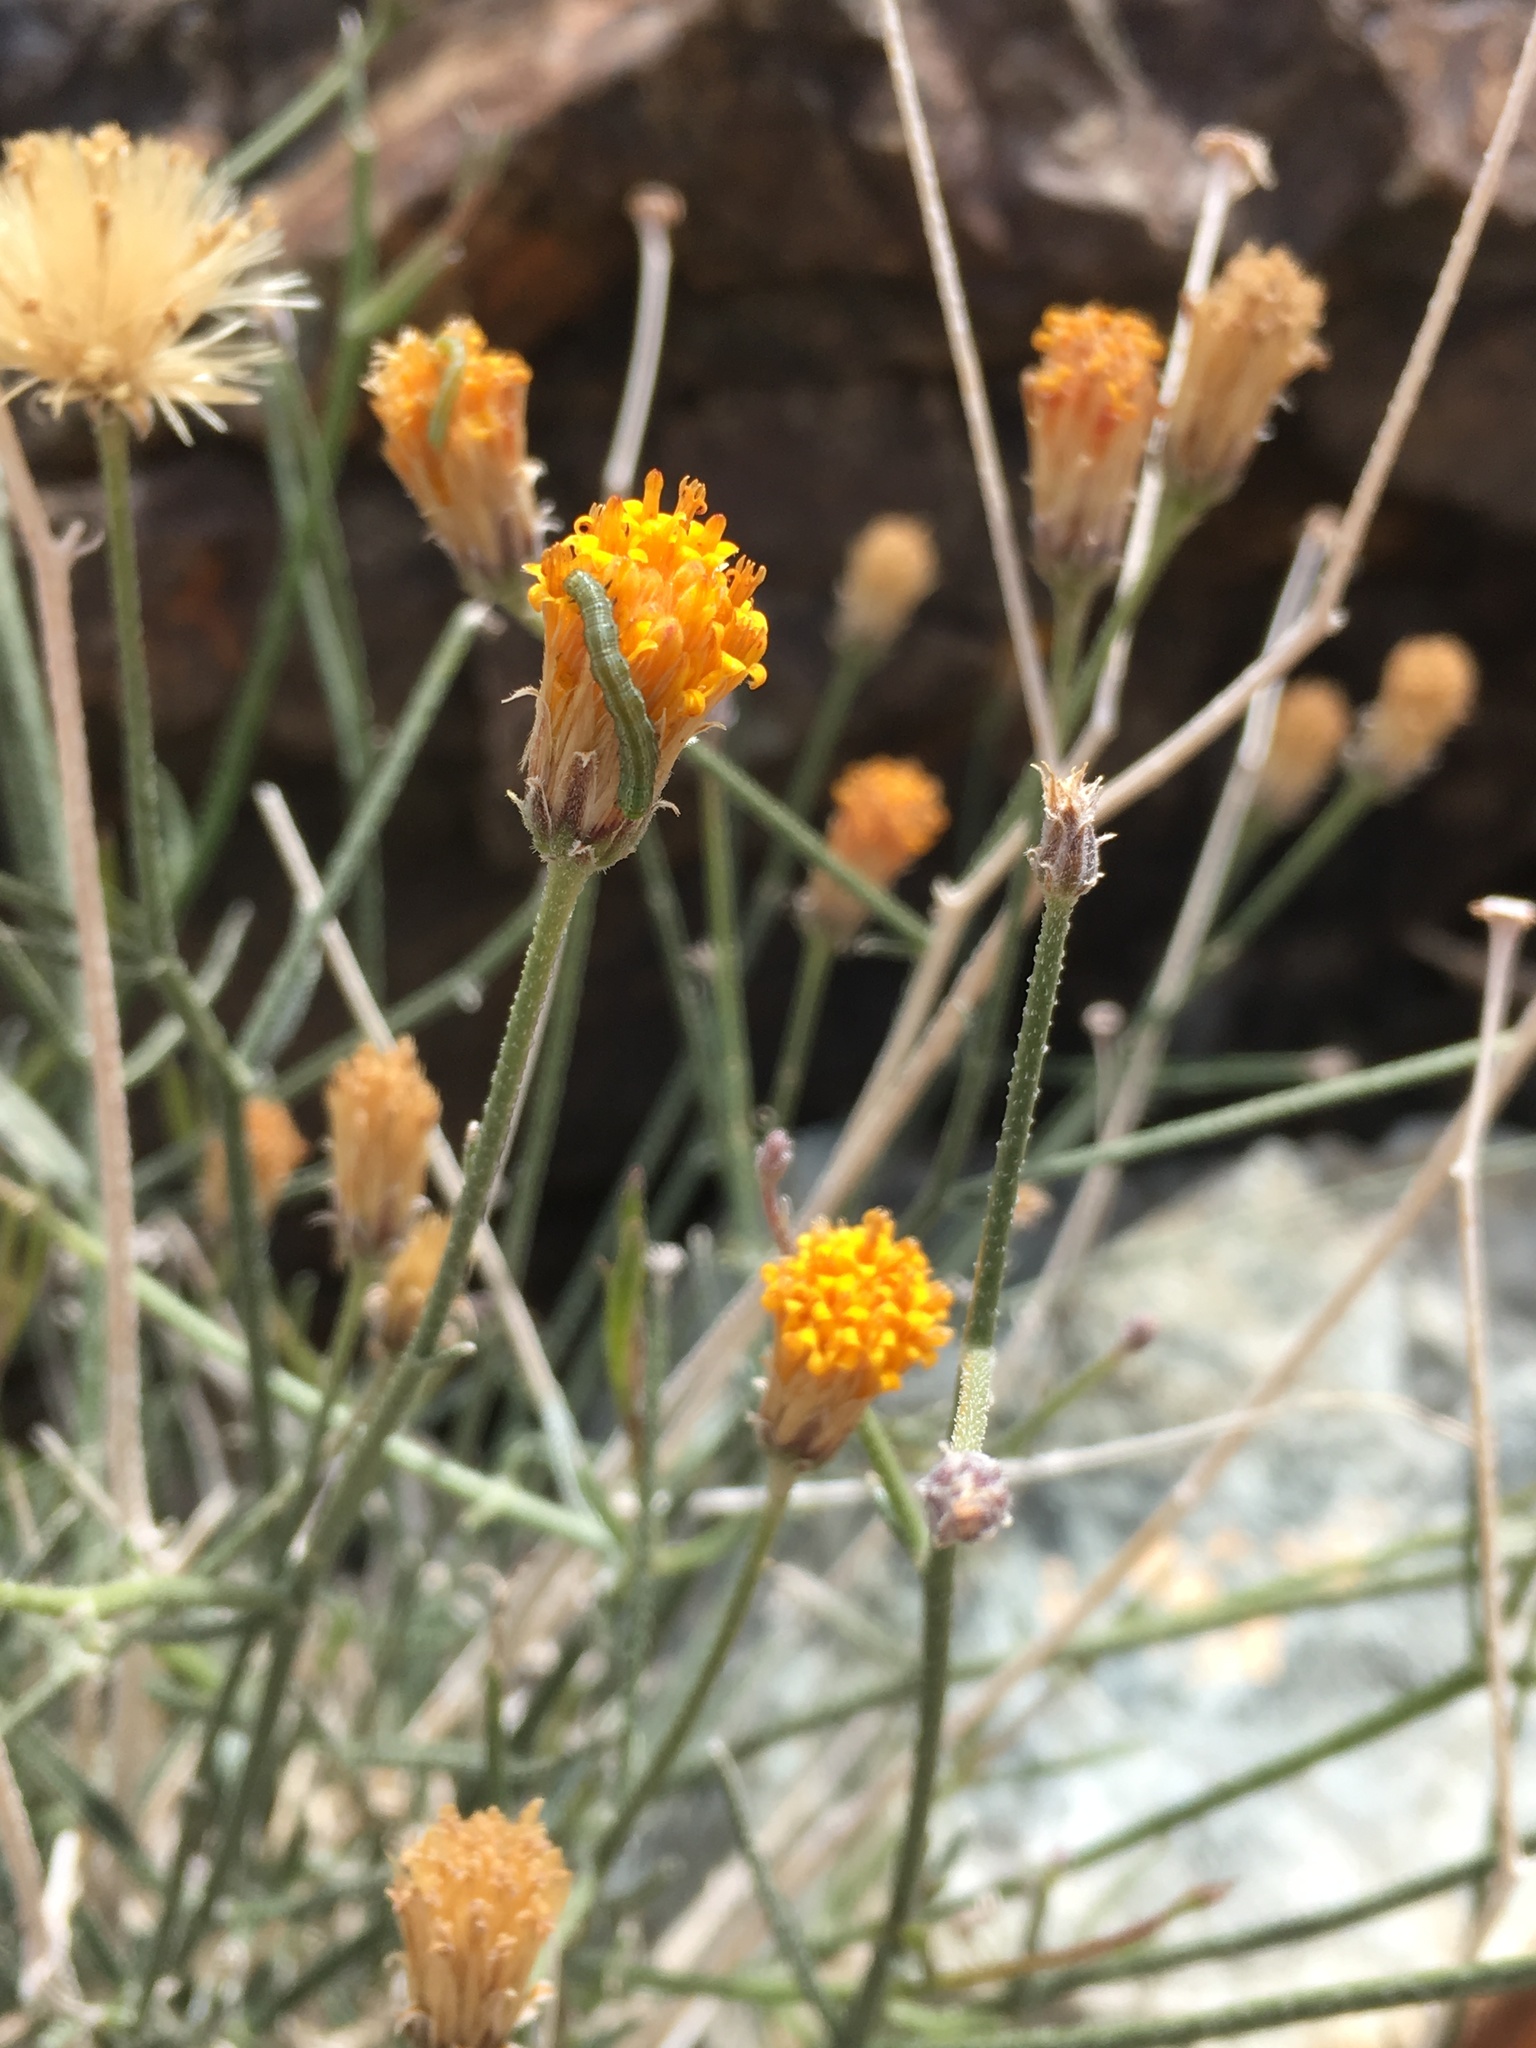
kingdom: Plantae
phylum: Tracheophyta
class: Magnoliopsida
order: Asterales
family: Asteraceae
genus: Bebbia
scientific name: Bebbia juncea
